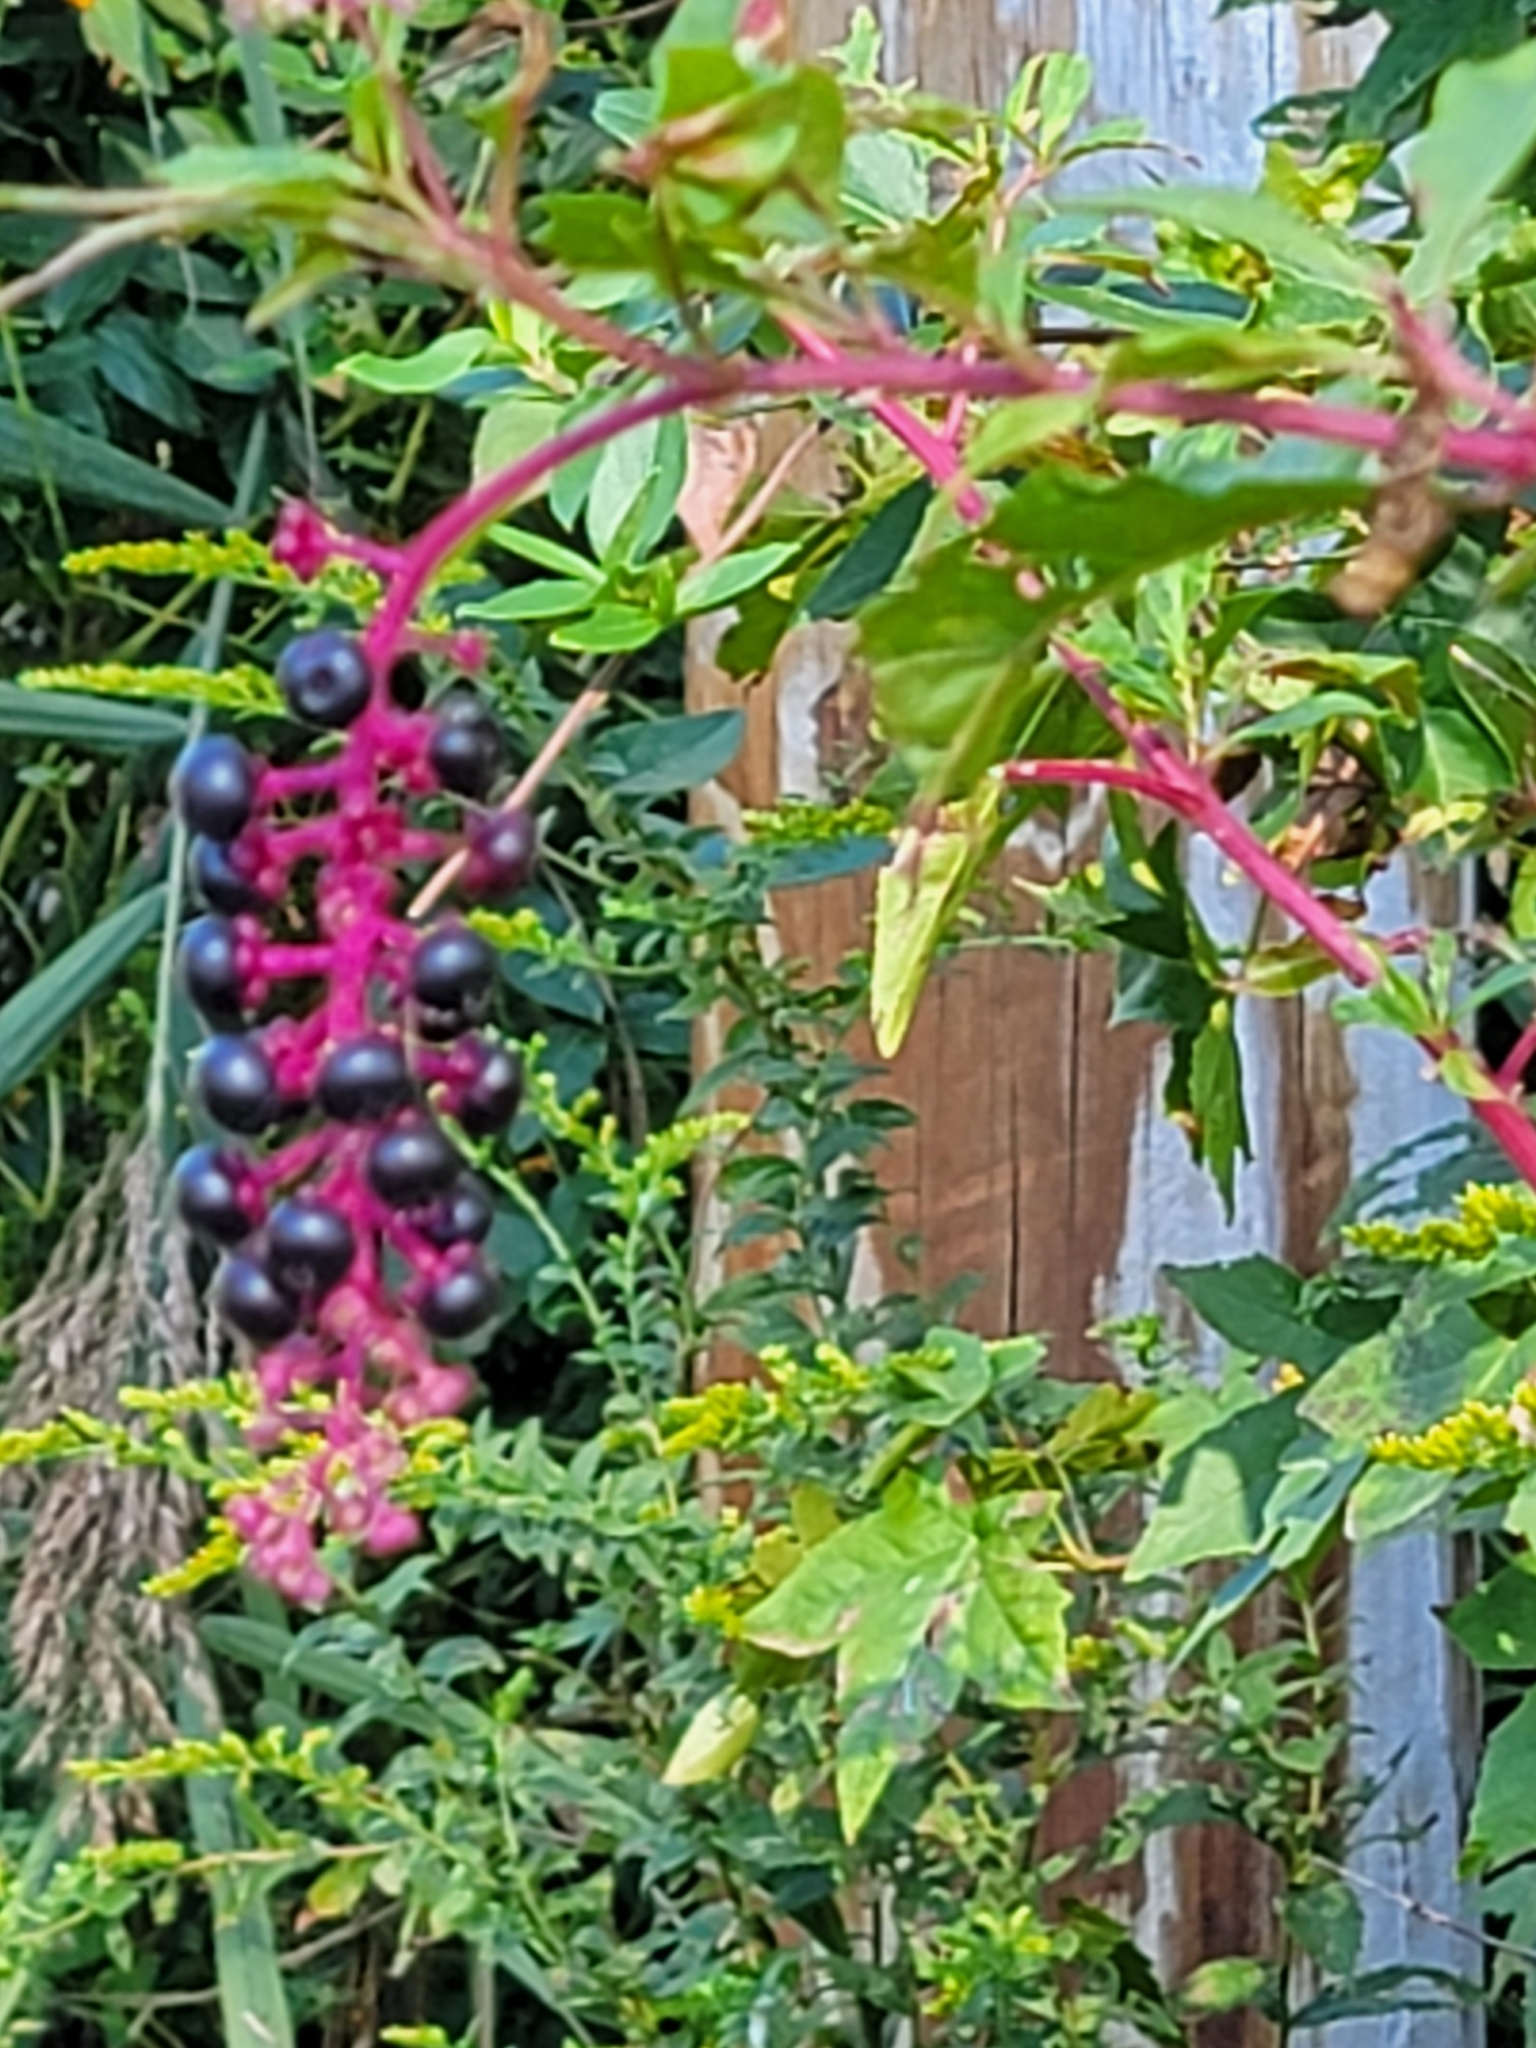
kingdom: Plantae
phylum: Tracheophyta
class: Magnoliopsida
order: Caryophyllales
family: Phytolaccaceae
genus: Phytolacca
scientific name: Phytolacca americana
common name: American pokeweed
